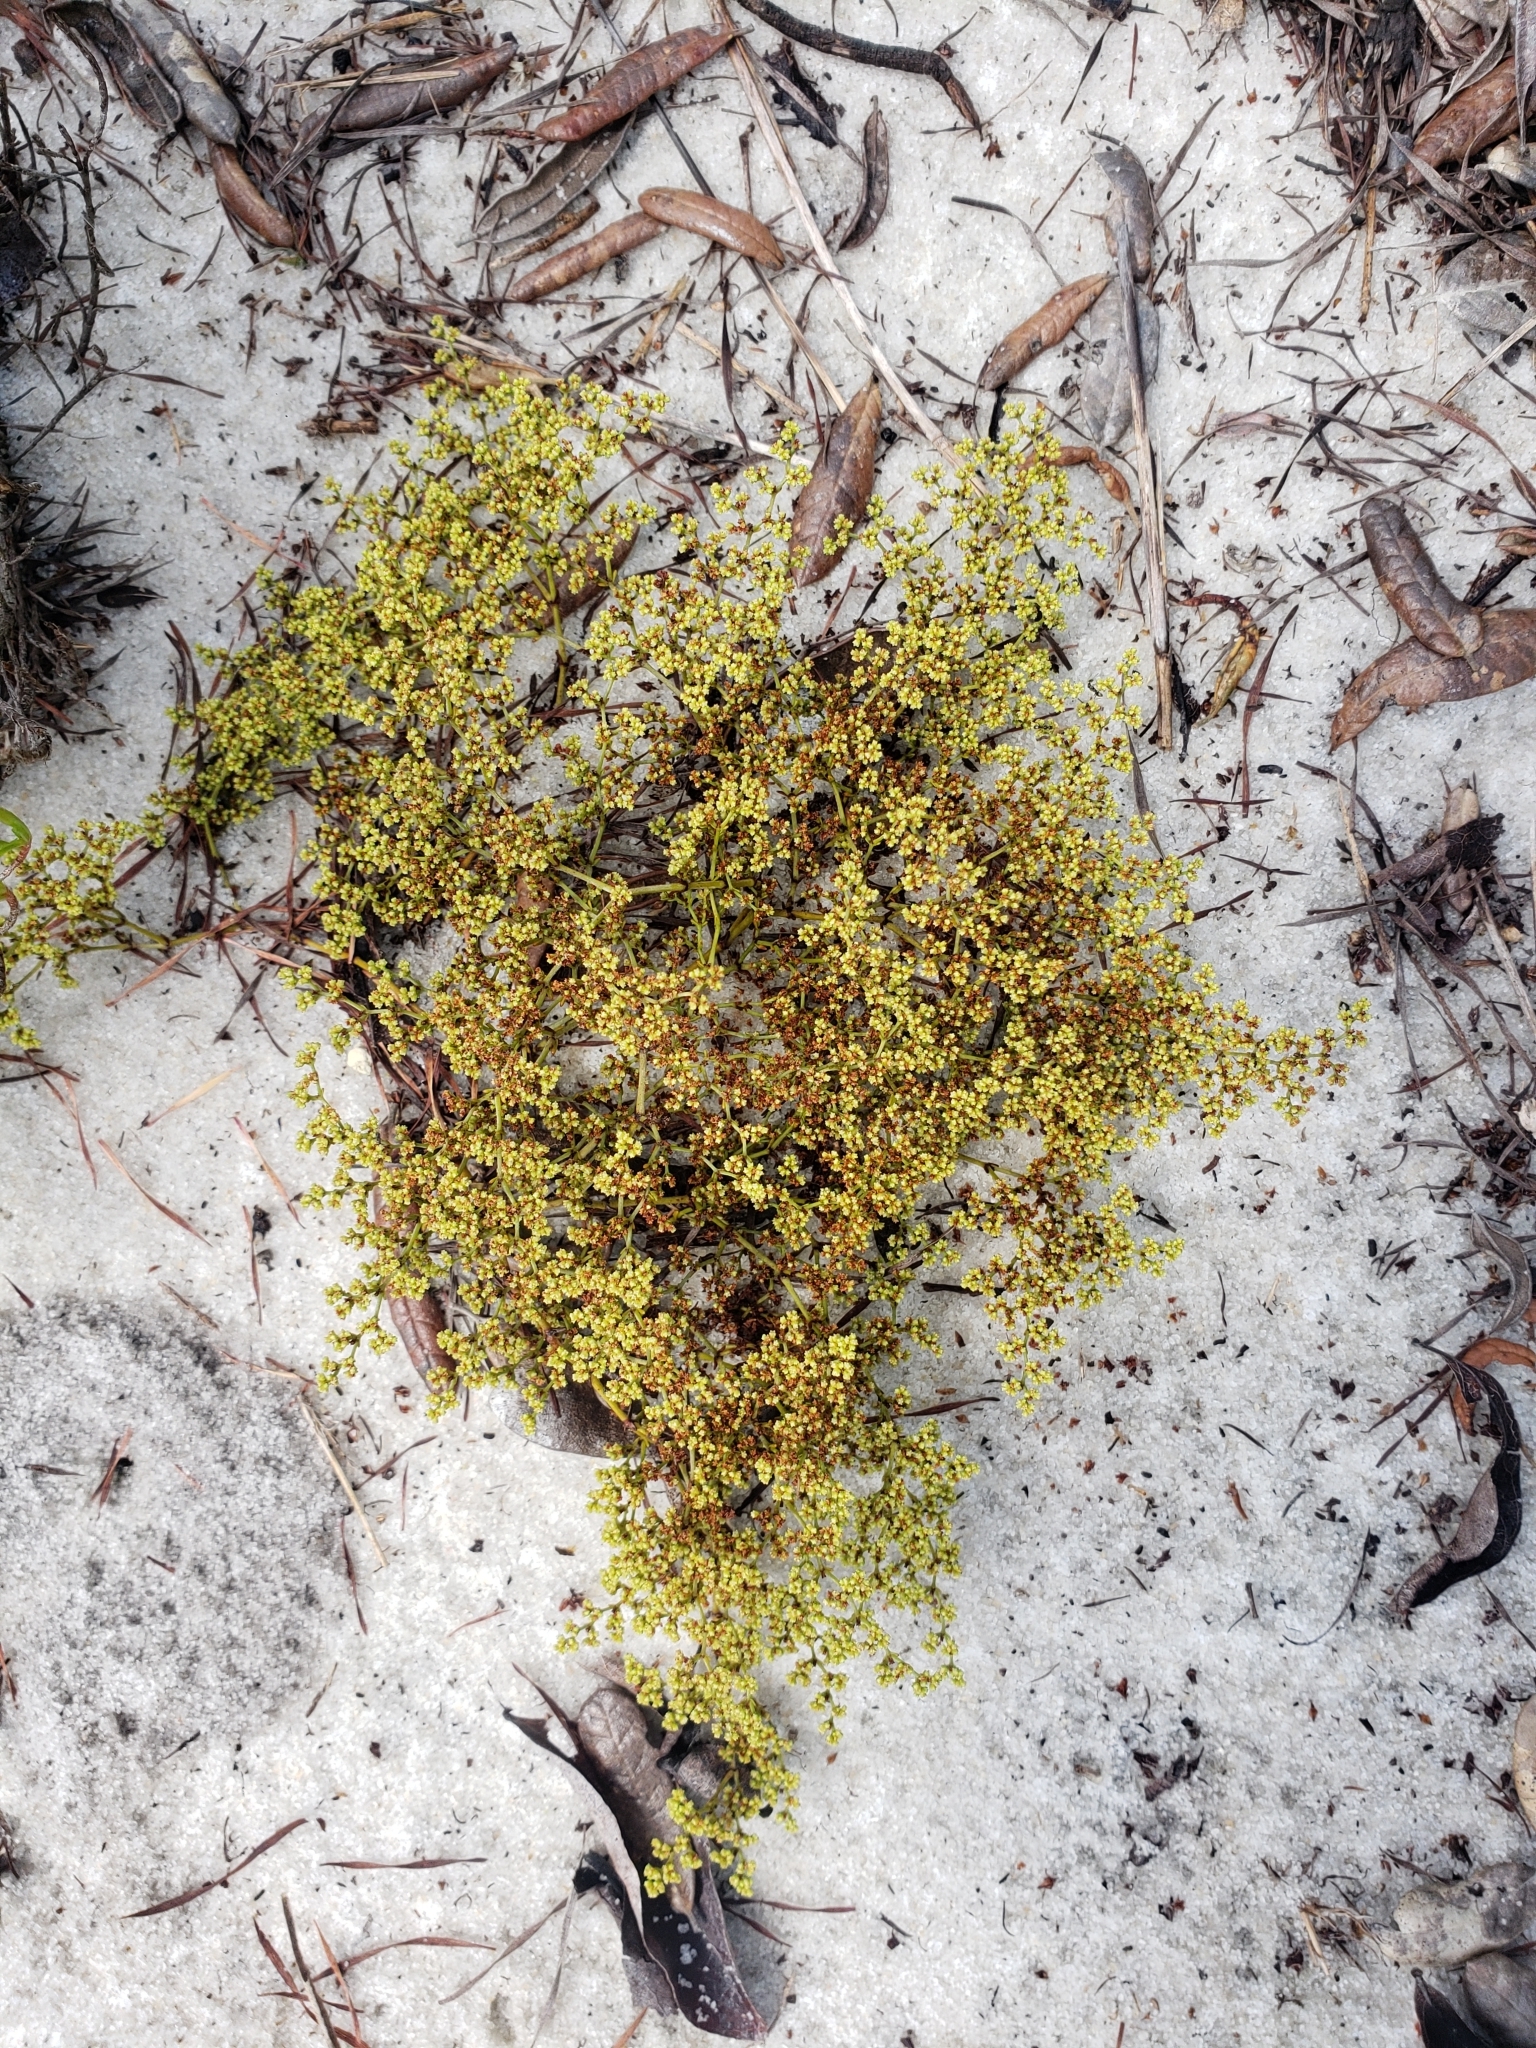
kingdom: Plantae
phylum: Tracheophyta
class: Magnoliopsida
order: Caryophyllales
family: Caryophyllaceae
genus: Paronychia
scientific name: Paronychia chartacea
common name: Paper nailwort
